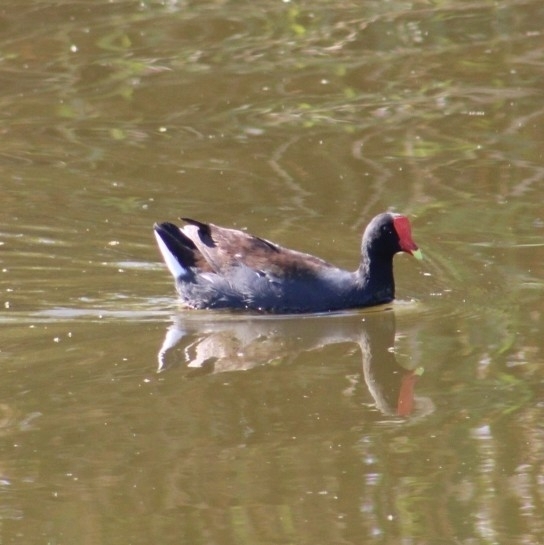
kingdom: Animalia
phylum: Chordata
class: Aves
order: Gruiformes
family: Rallidae
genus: Gallinula
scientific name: Gallinula chloropus
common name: Common moorhen
